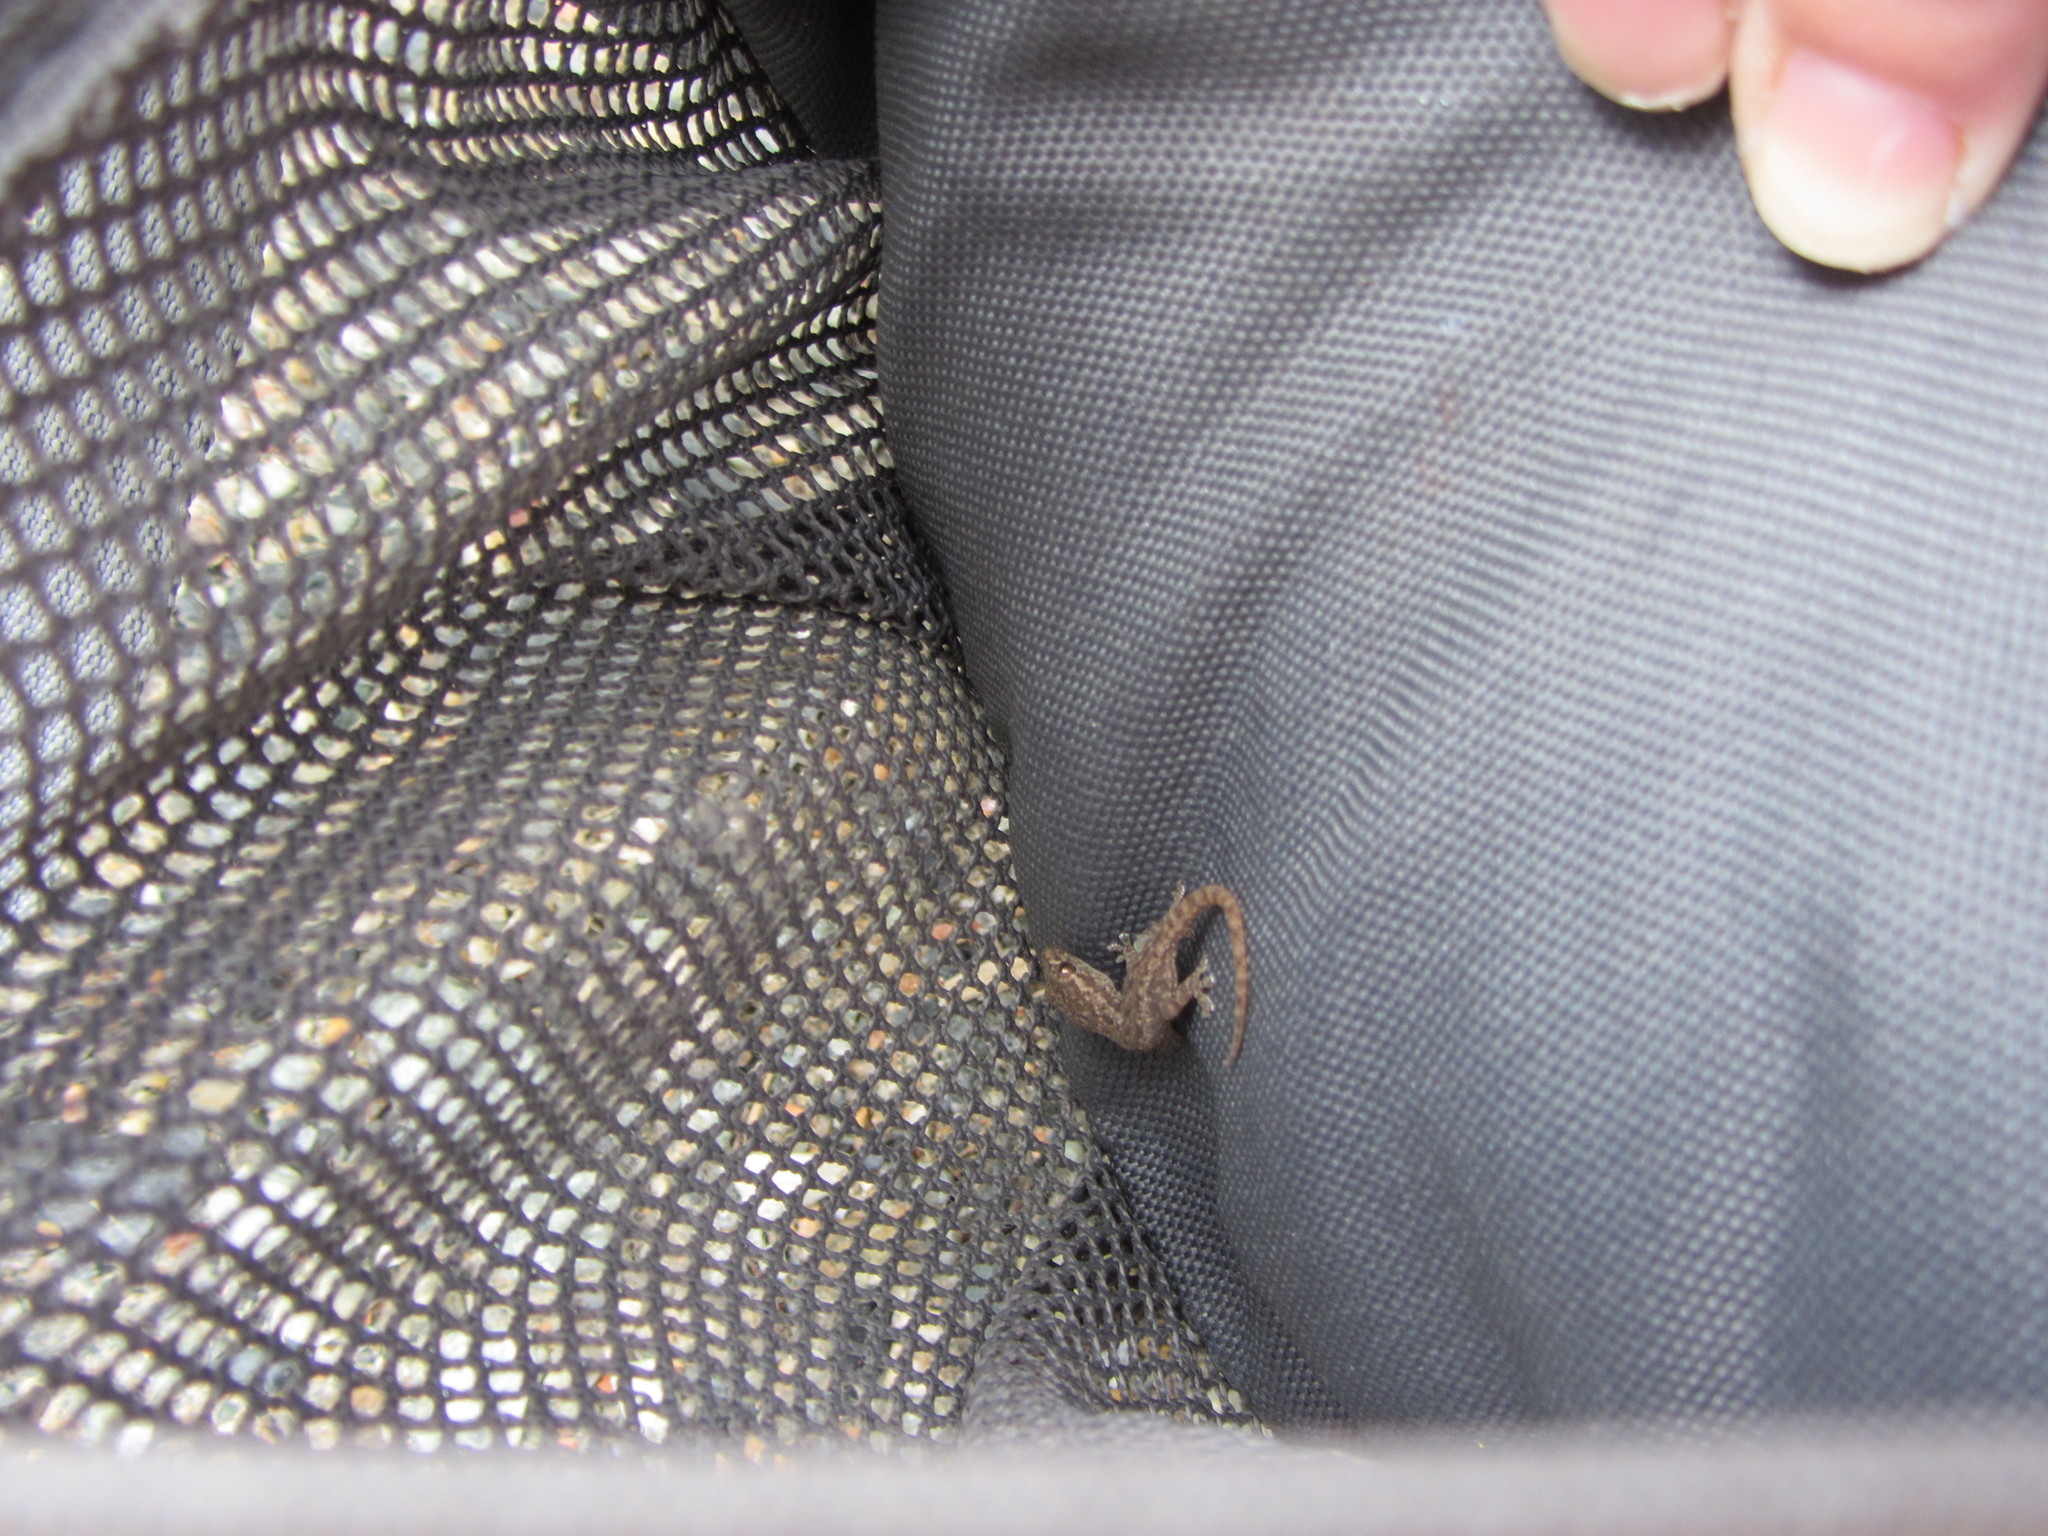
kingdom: Animalia
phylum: Chordata
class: Squamata
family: Gekkonidae
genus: Hemidactylus
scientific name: Hemidactylus frenatus
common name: Common house gecko
